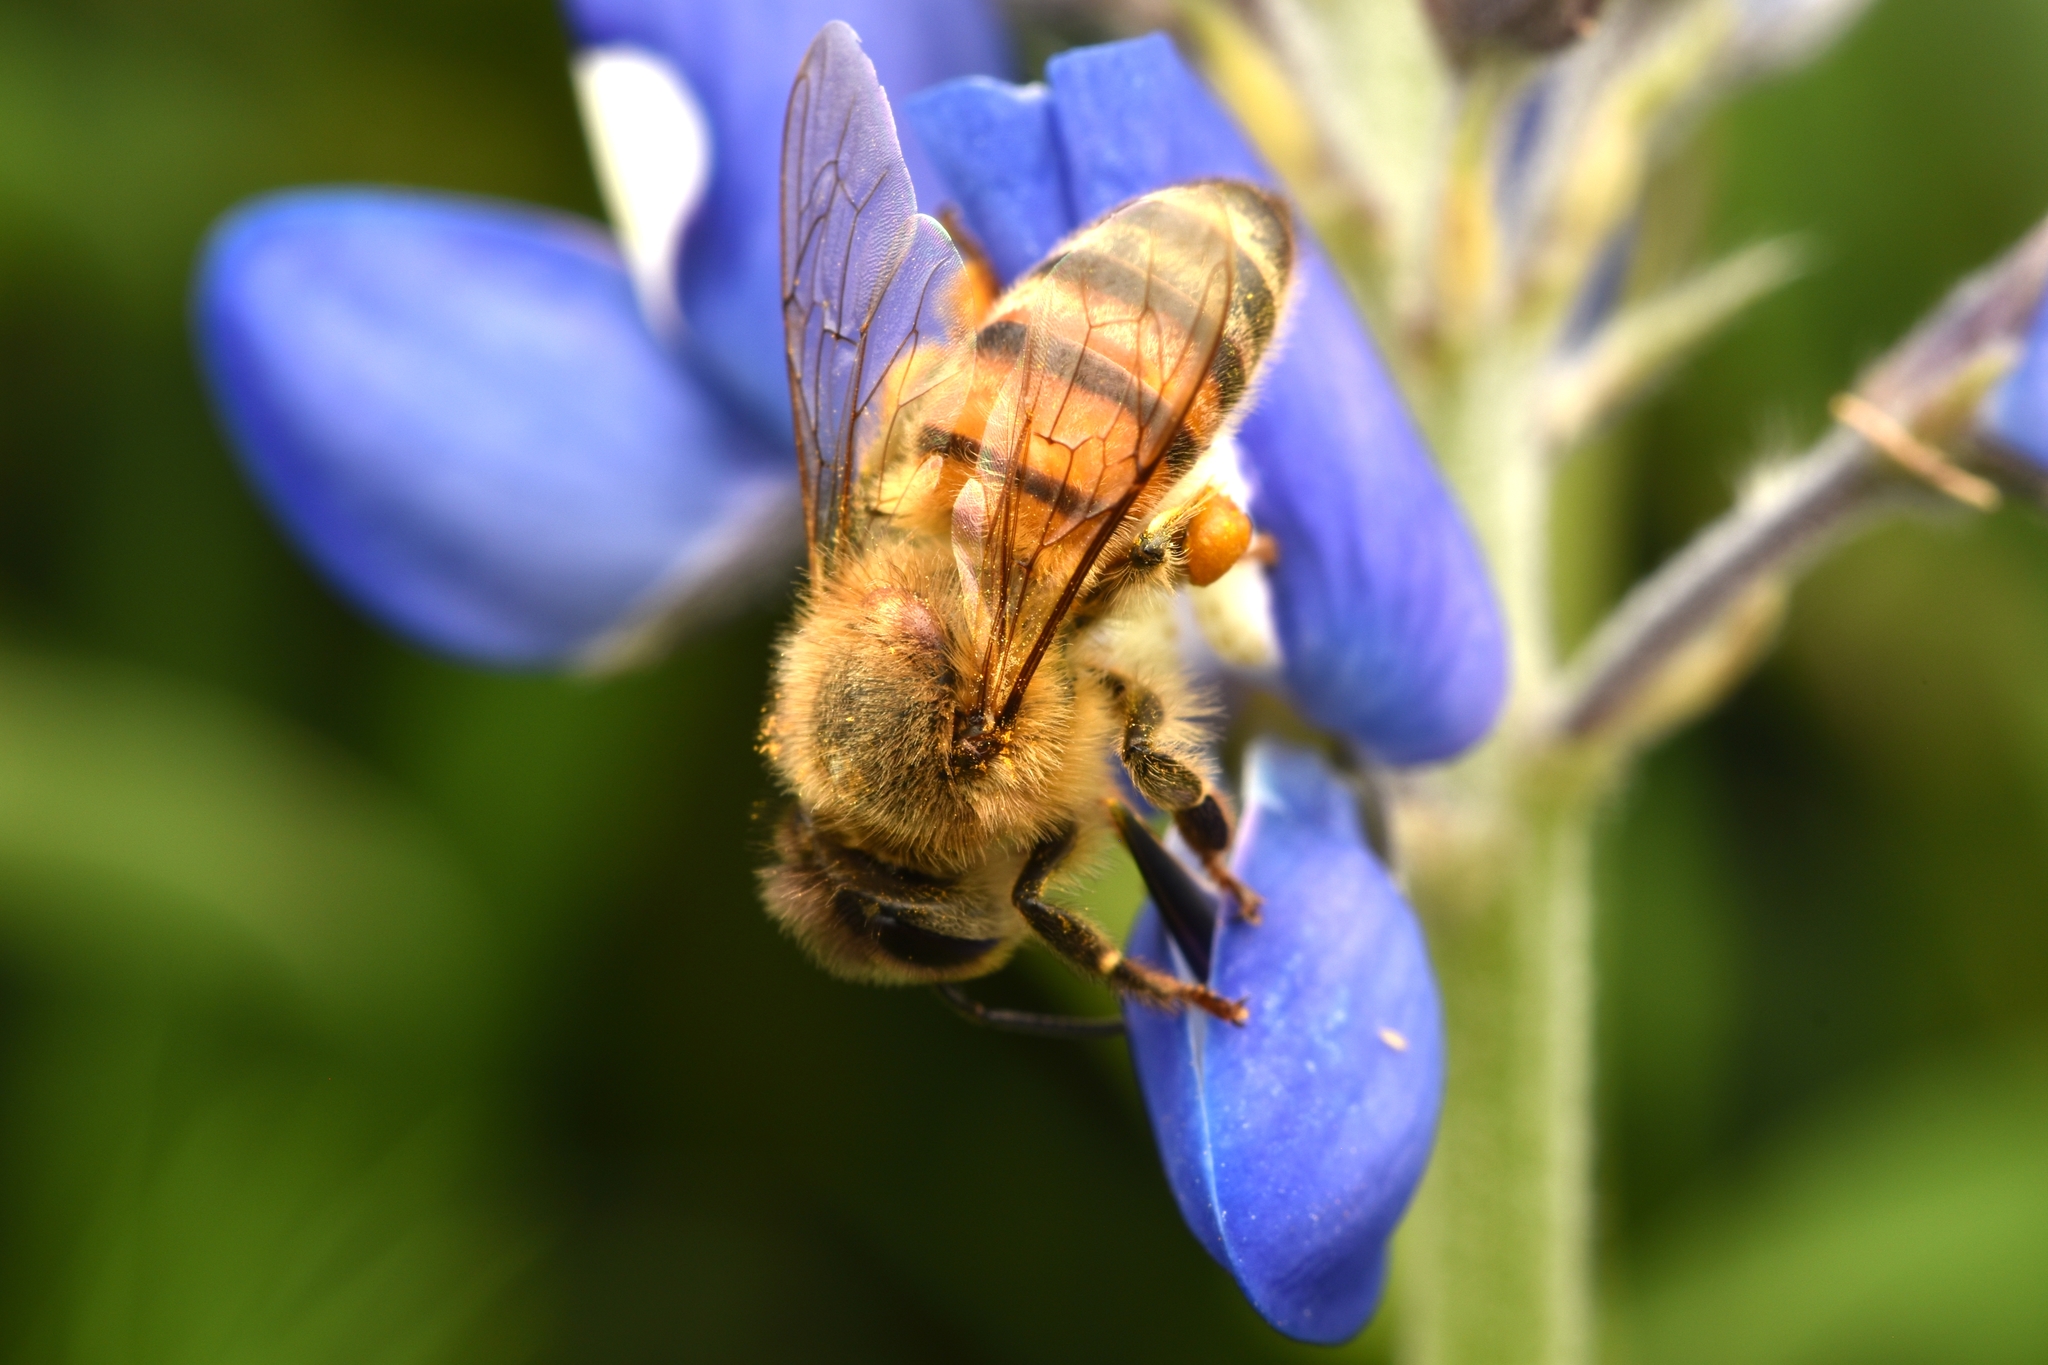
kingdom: Animalia
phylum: Arthropoda
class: Insecta
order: Hymenoptera
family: Apidae
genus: Apis
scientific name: Apis mellifera
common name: Honey bee
